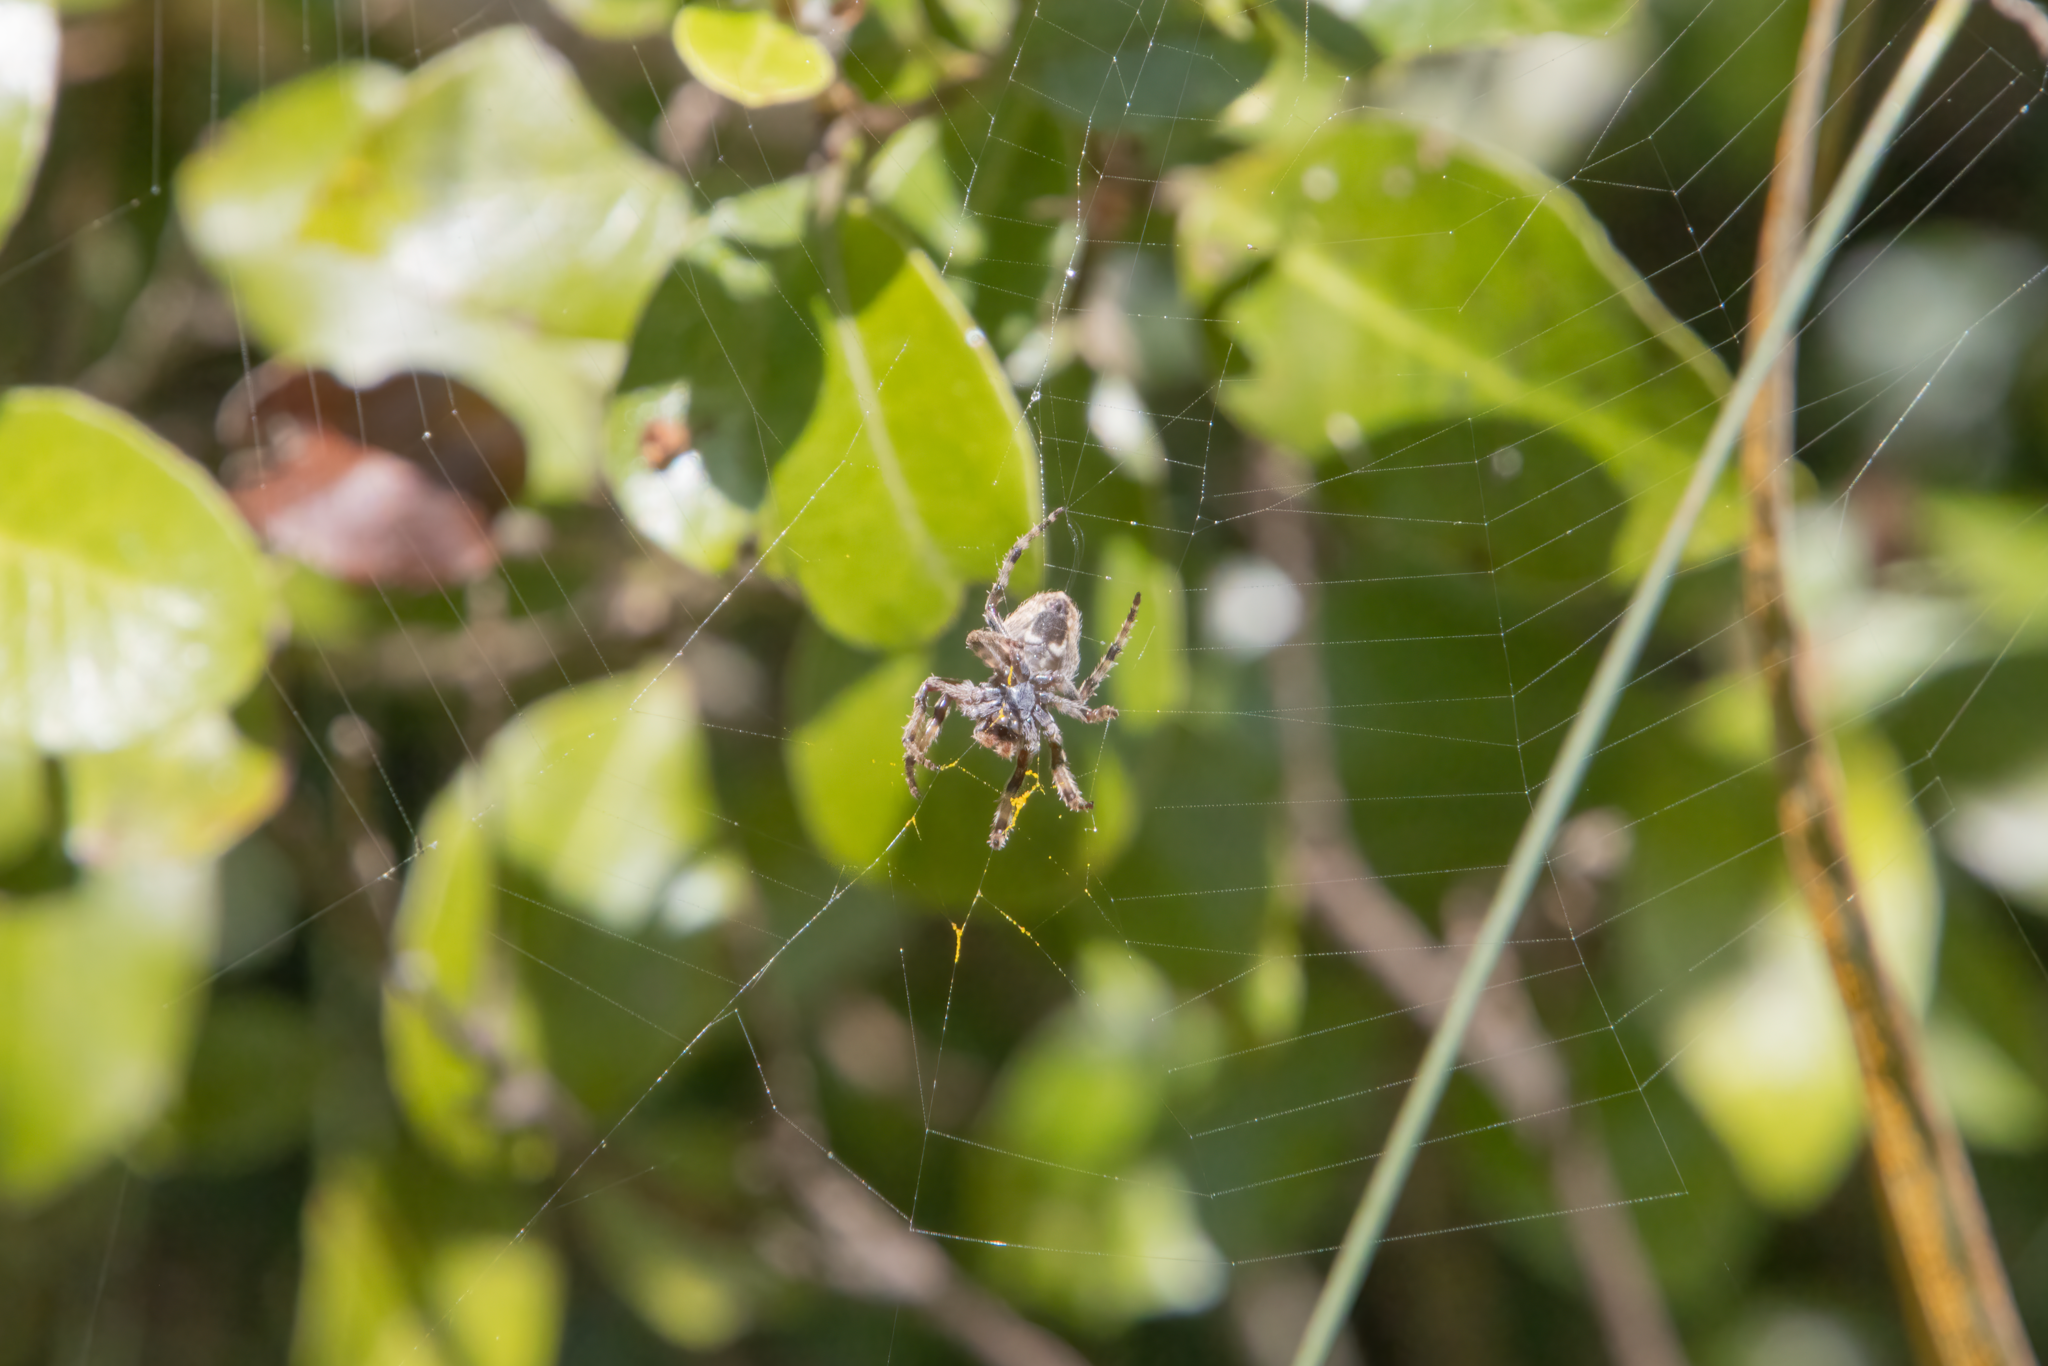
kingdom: Animalia
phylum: Arthropoda
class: Arachnida
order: Araneae
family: Araneidae
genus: Eriophora
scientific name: Eriophora pustulosa
